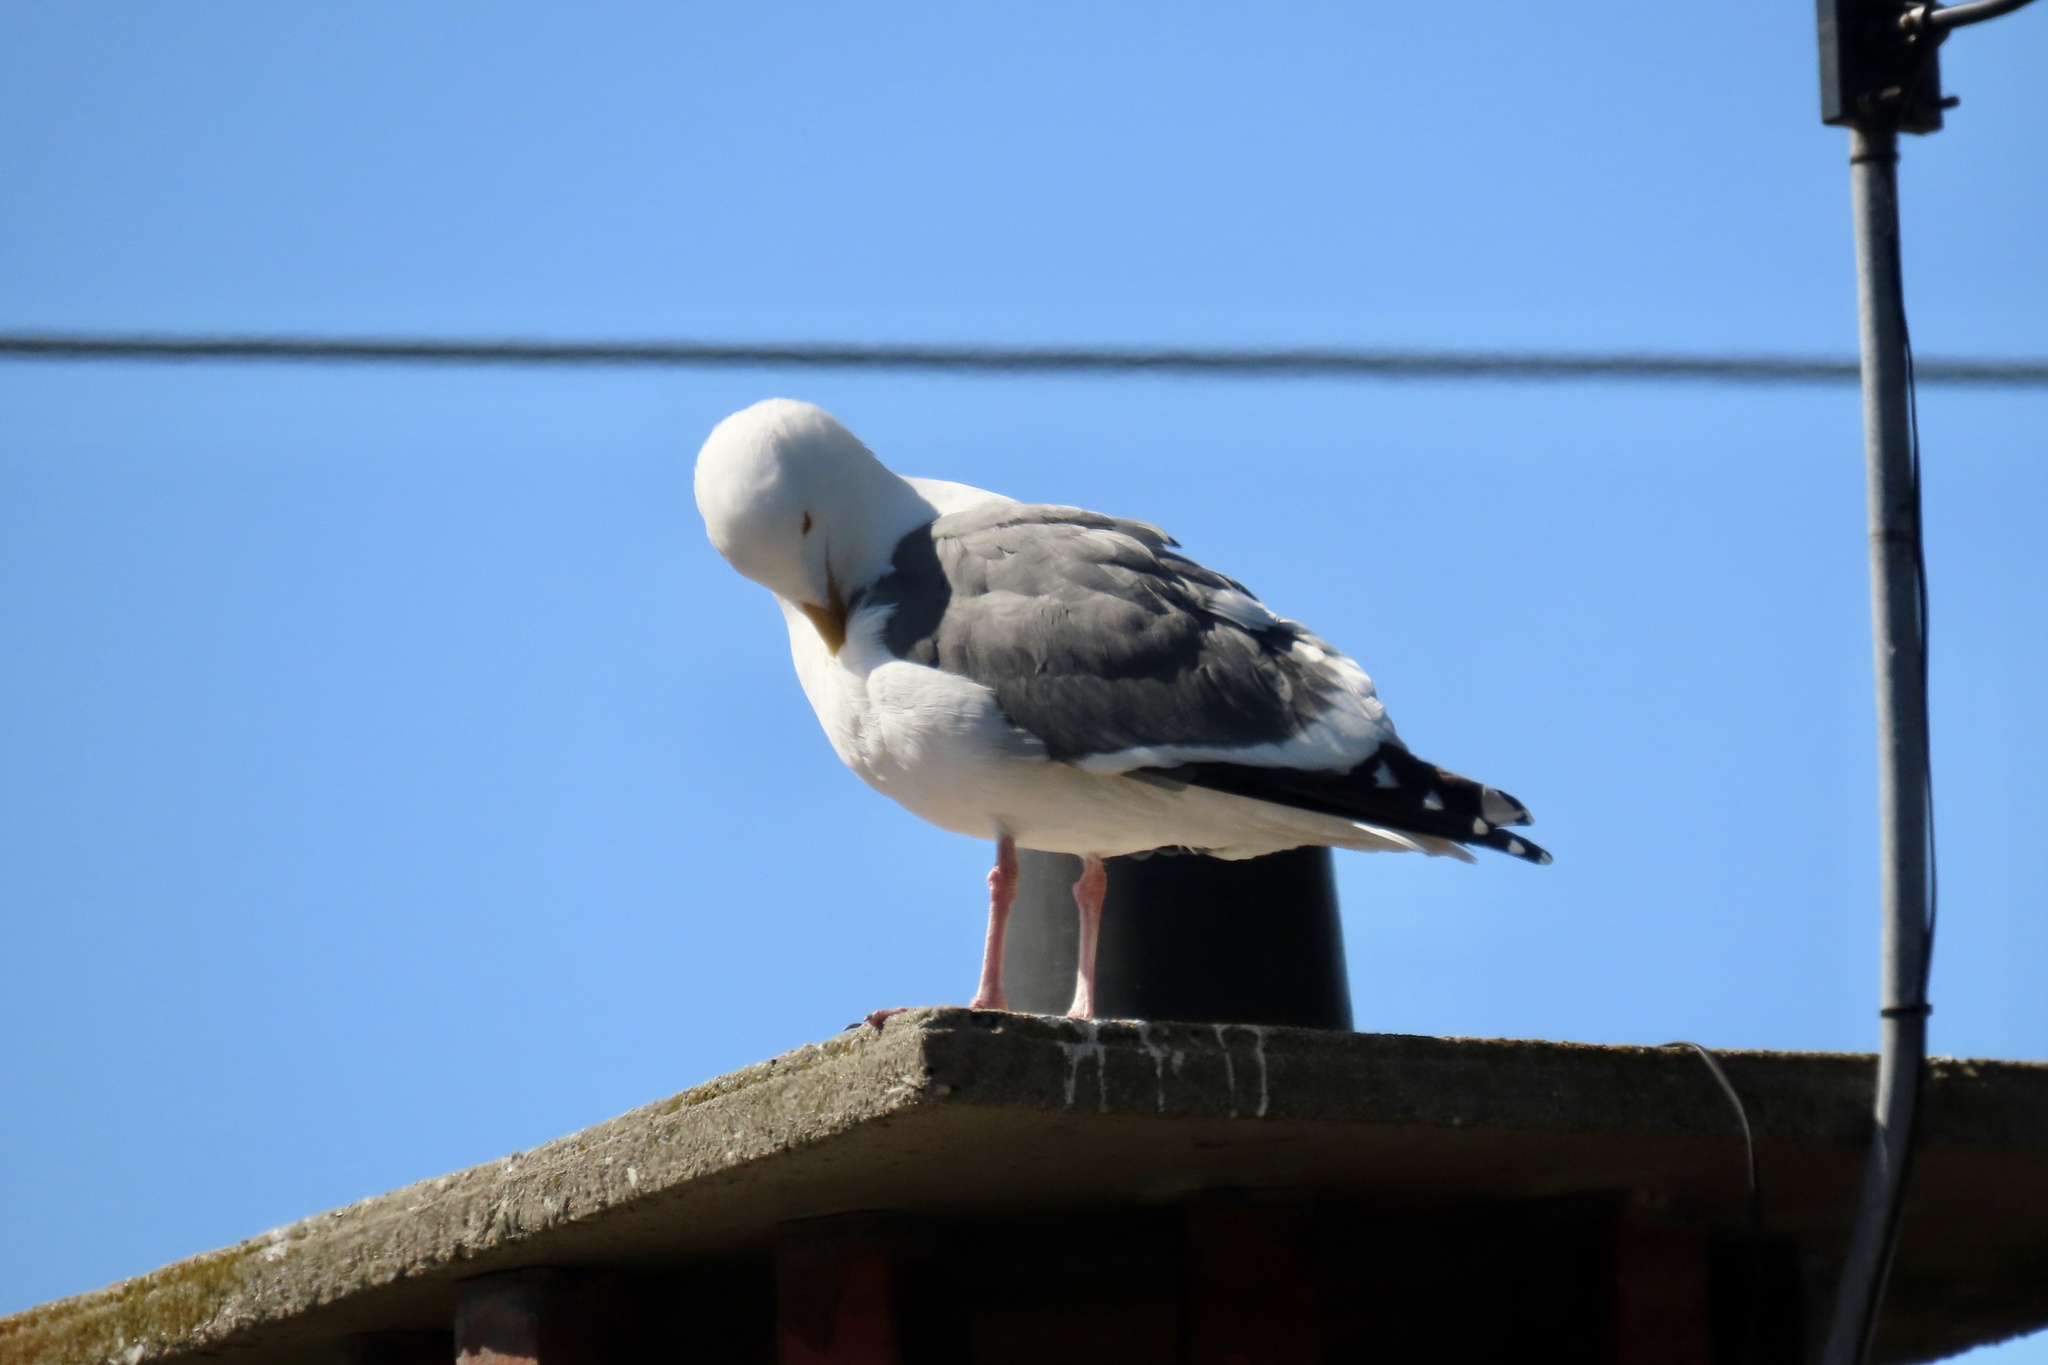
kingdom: Animalia
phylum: Chordata
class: Aves
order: Charadriiformes
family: Laridae
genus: Larus
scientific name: Larus occidentalis
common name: Western gull
